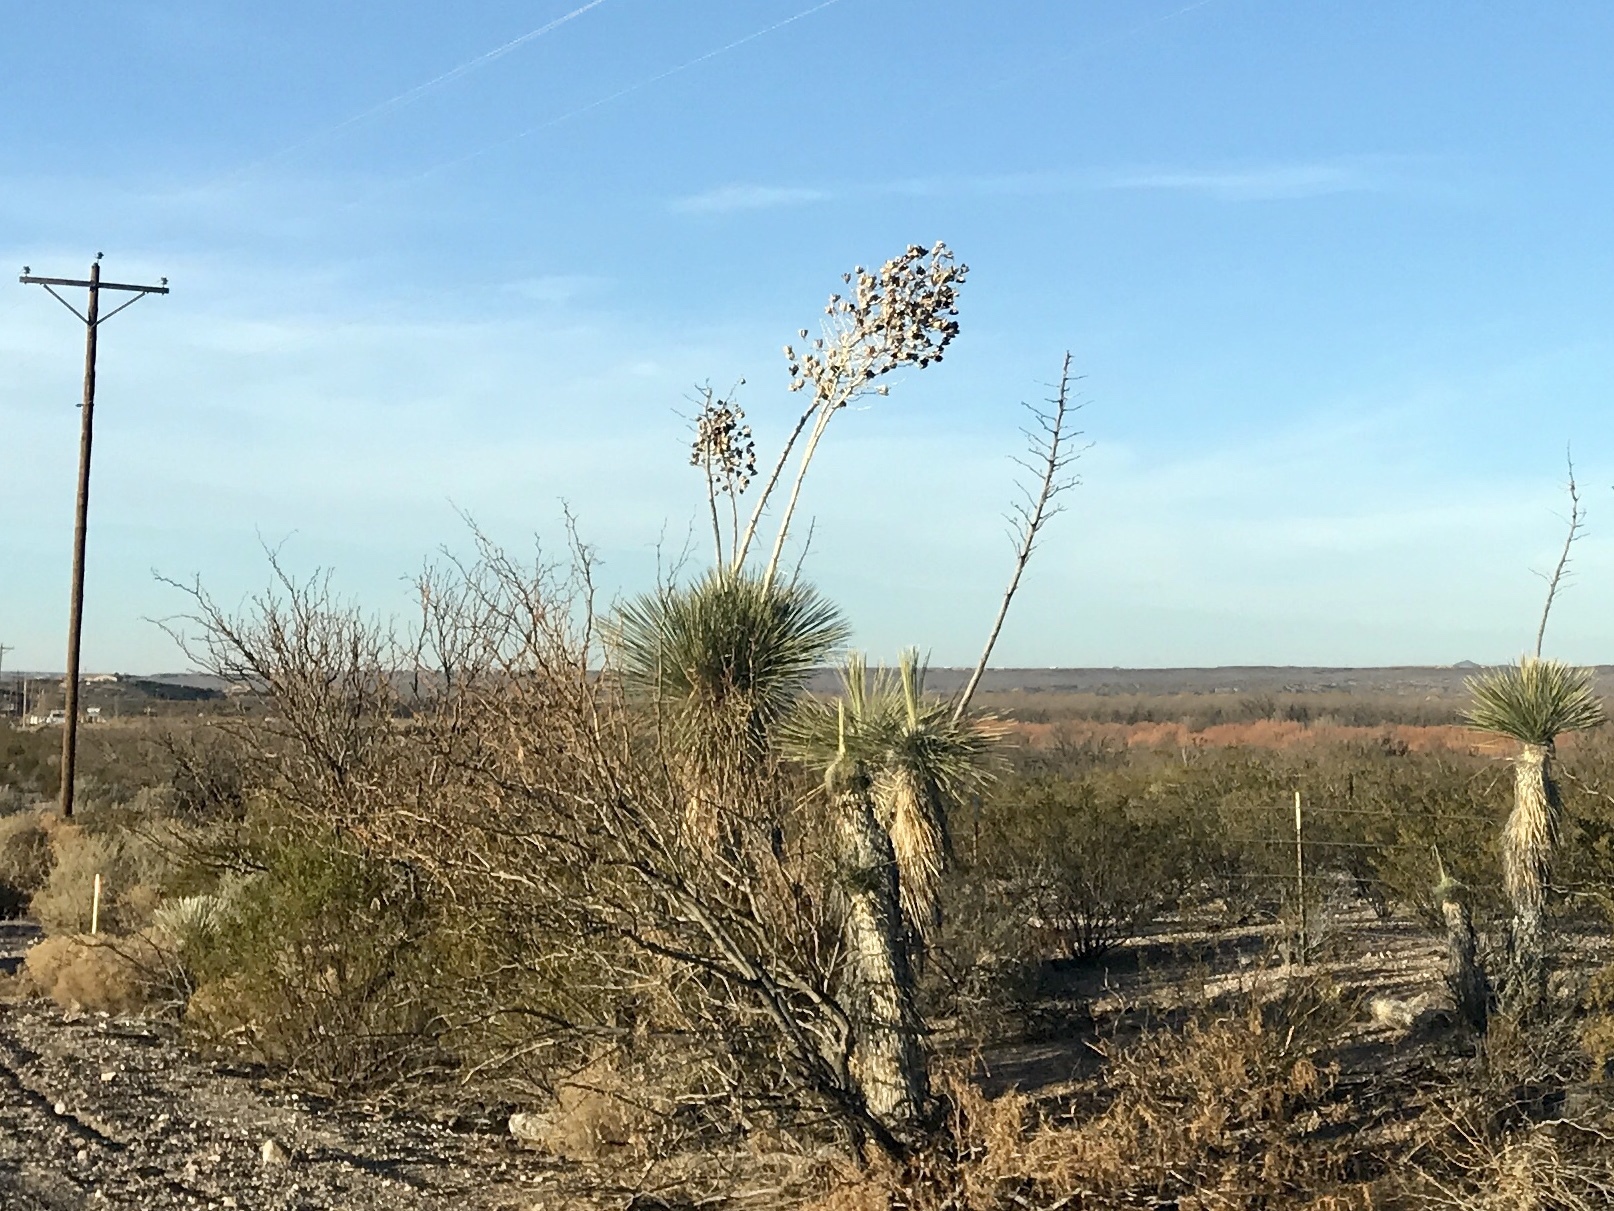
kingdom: Plantae
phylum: Tracheophyta
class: Liliopsida
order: Asparagales
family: Asparagaceae
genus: Yucca
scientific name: Yucca elata
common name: Palmella
